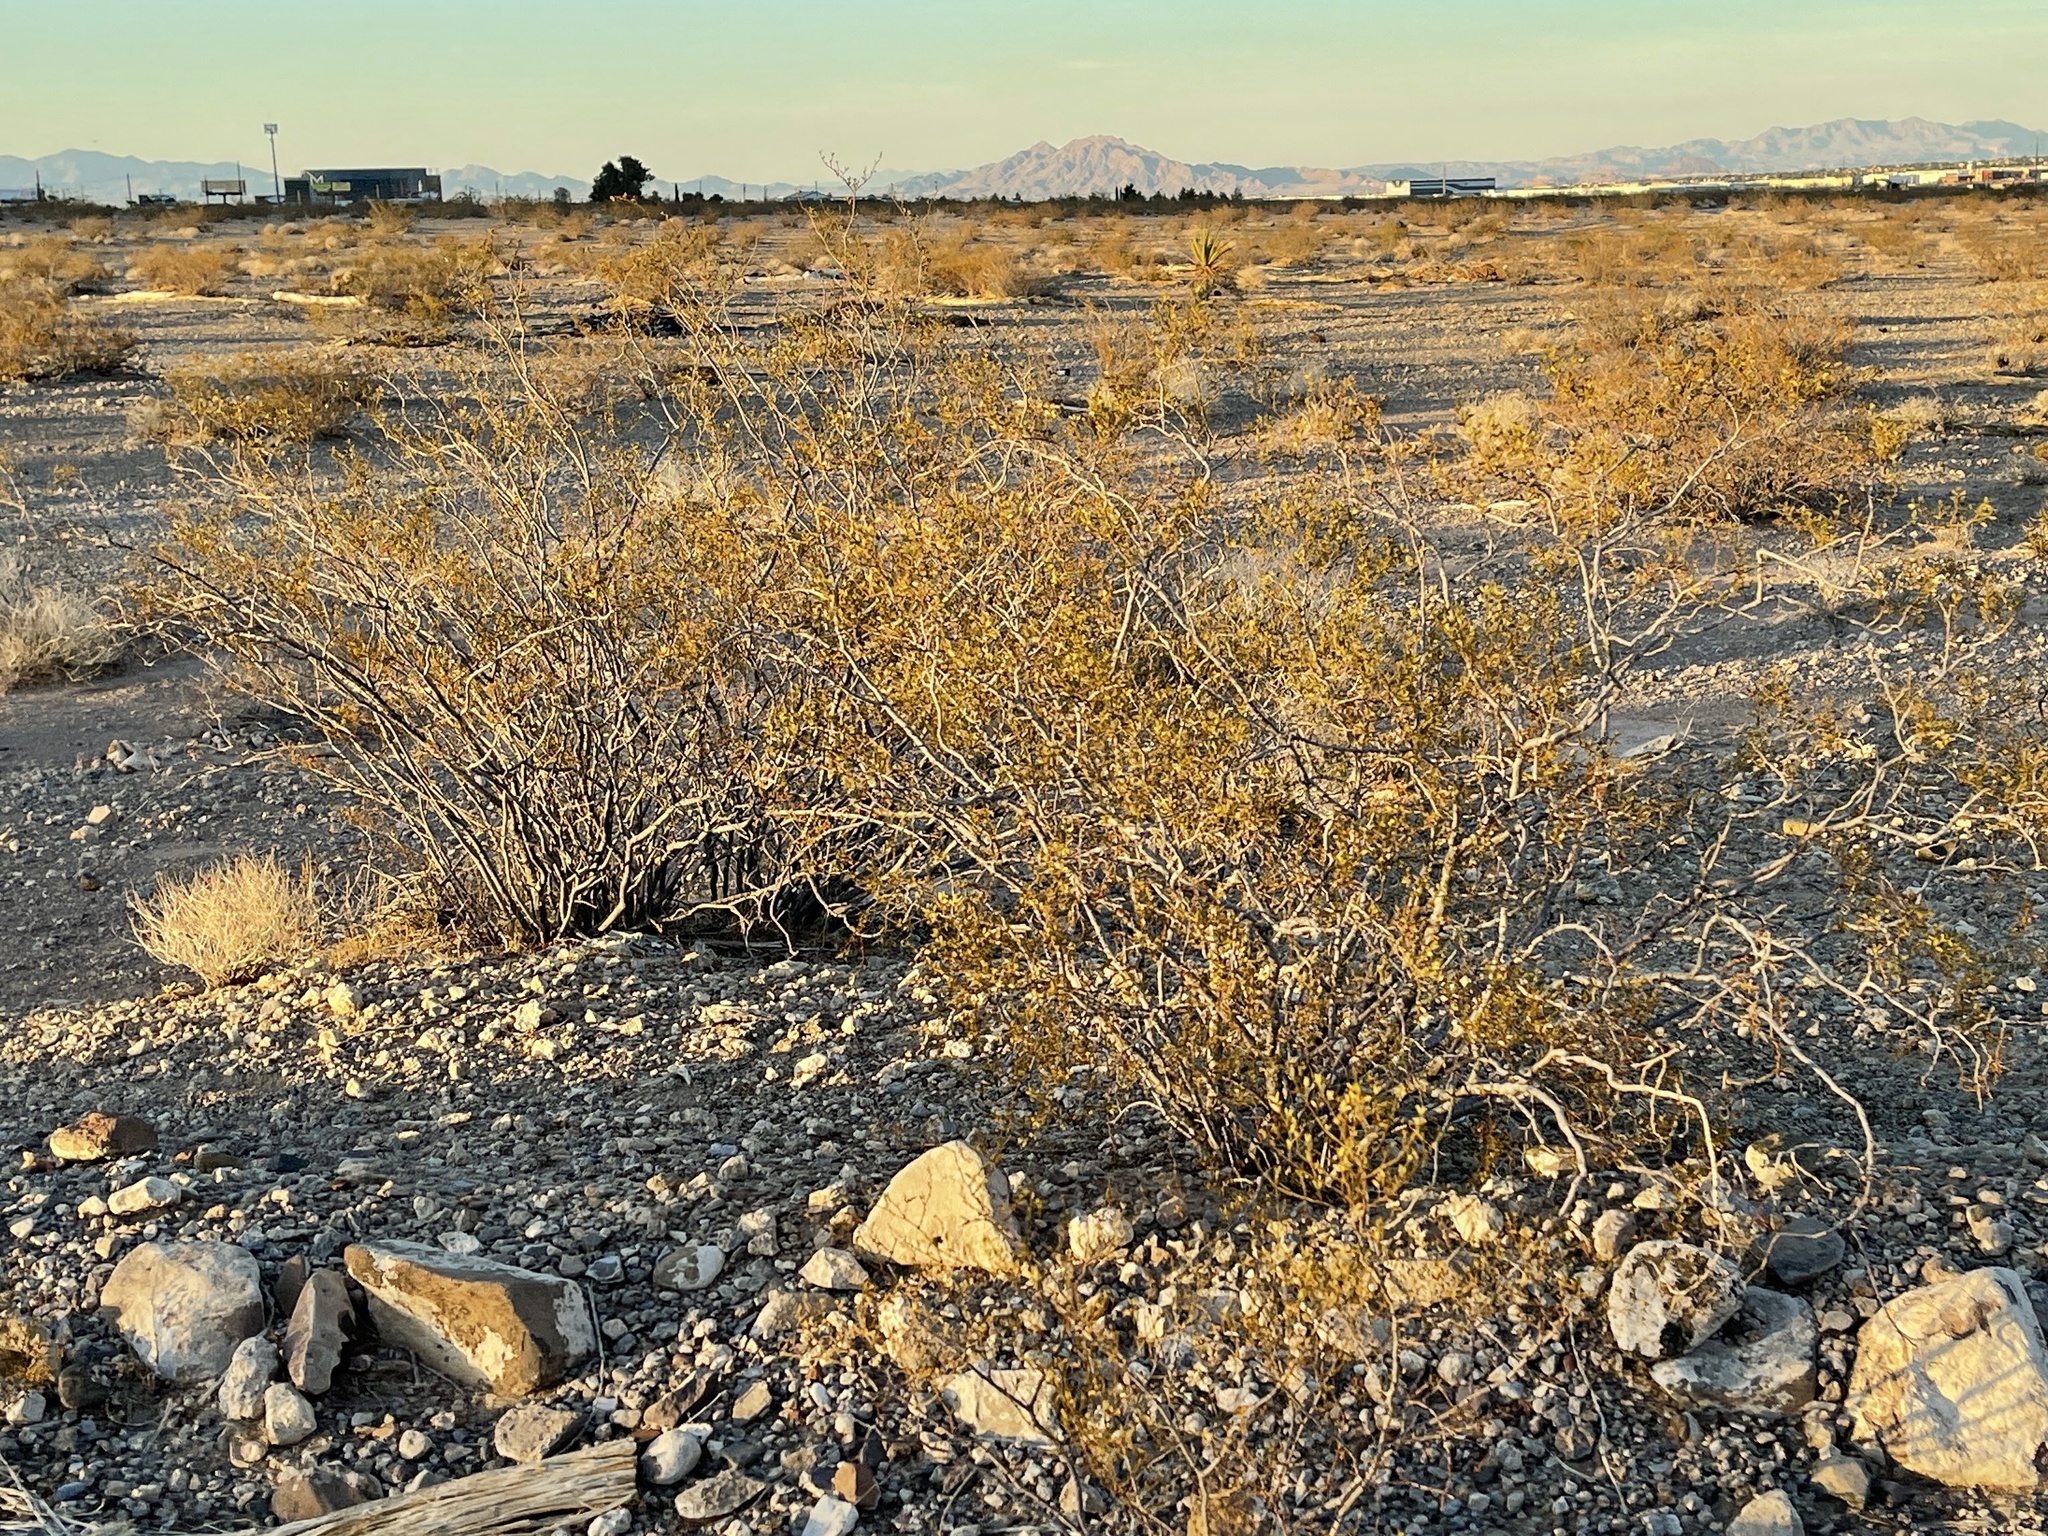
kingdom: Plantae
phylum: Tracheophyta
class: Magnoliopsida
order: Zygophyllales
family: Zygophyllaceae
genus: Larrea
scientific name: Larrea tridentata
